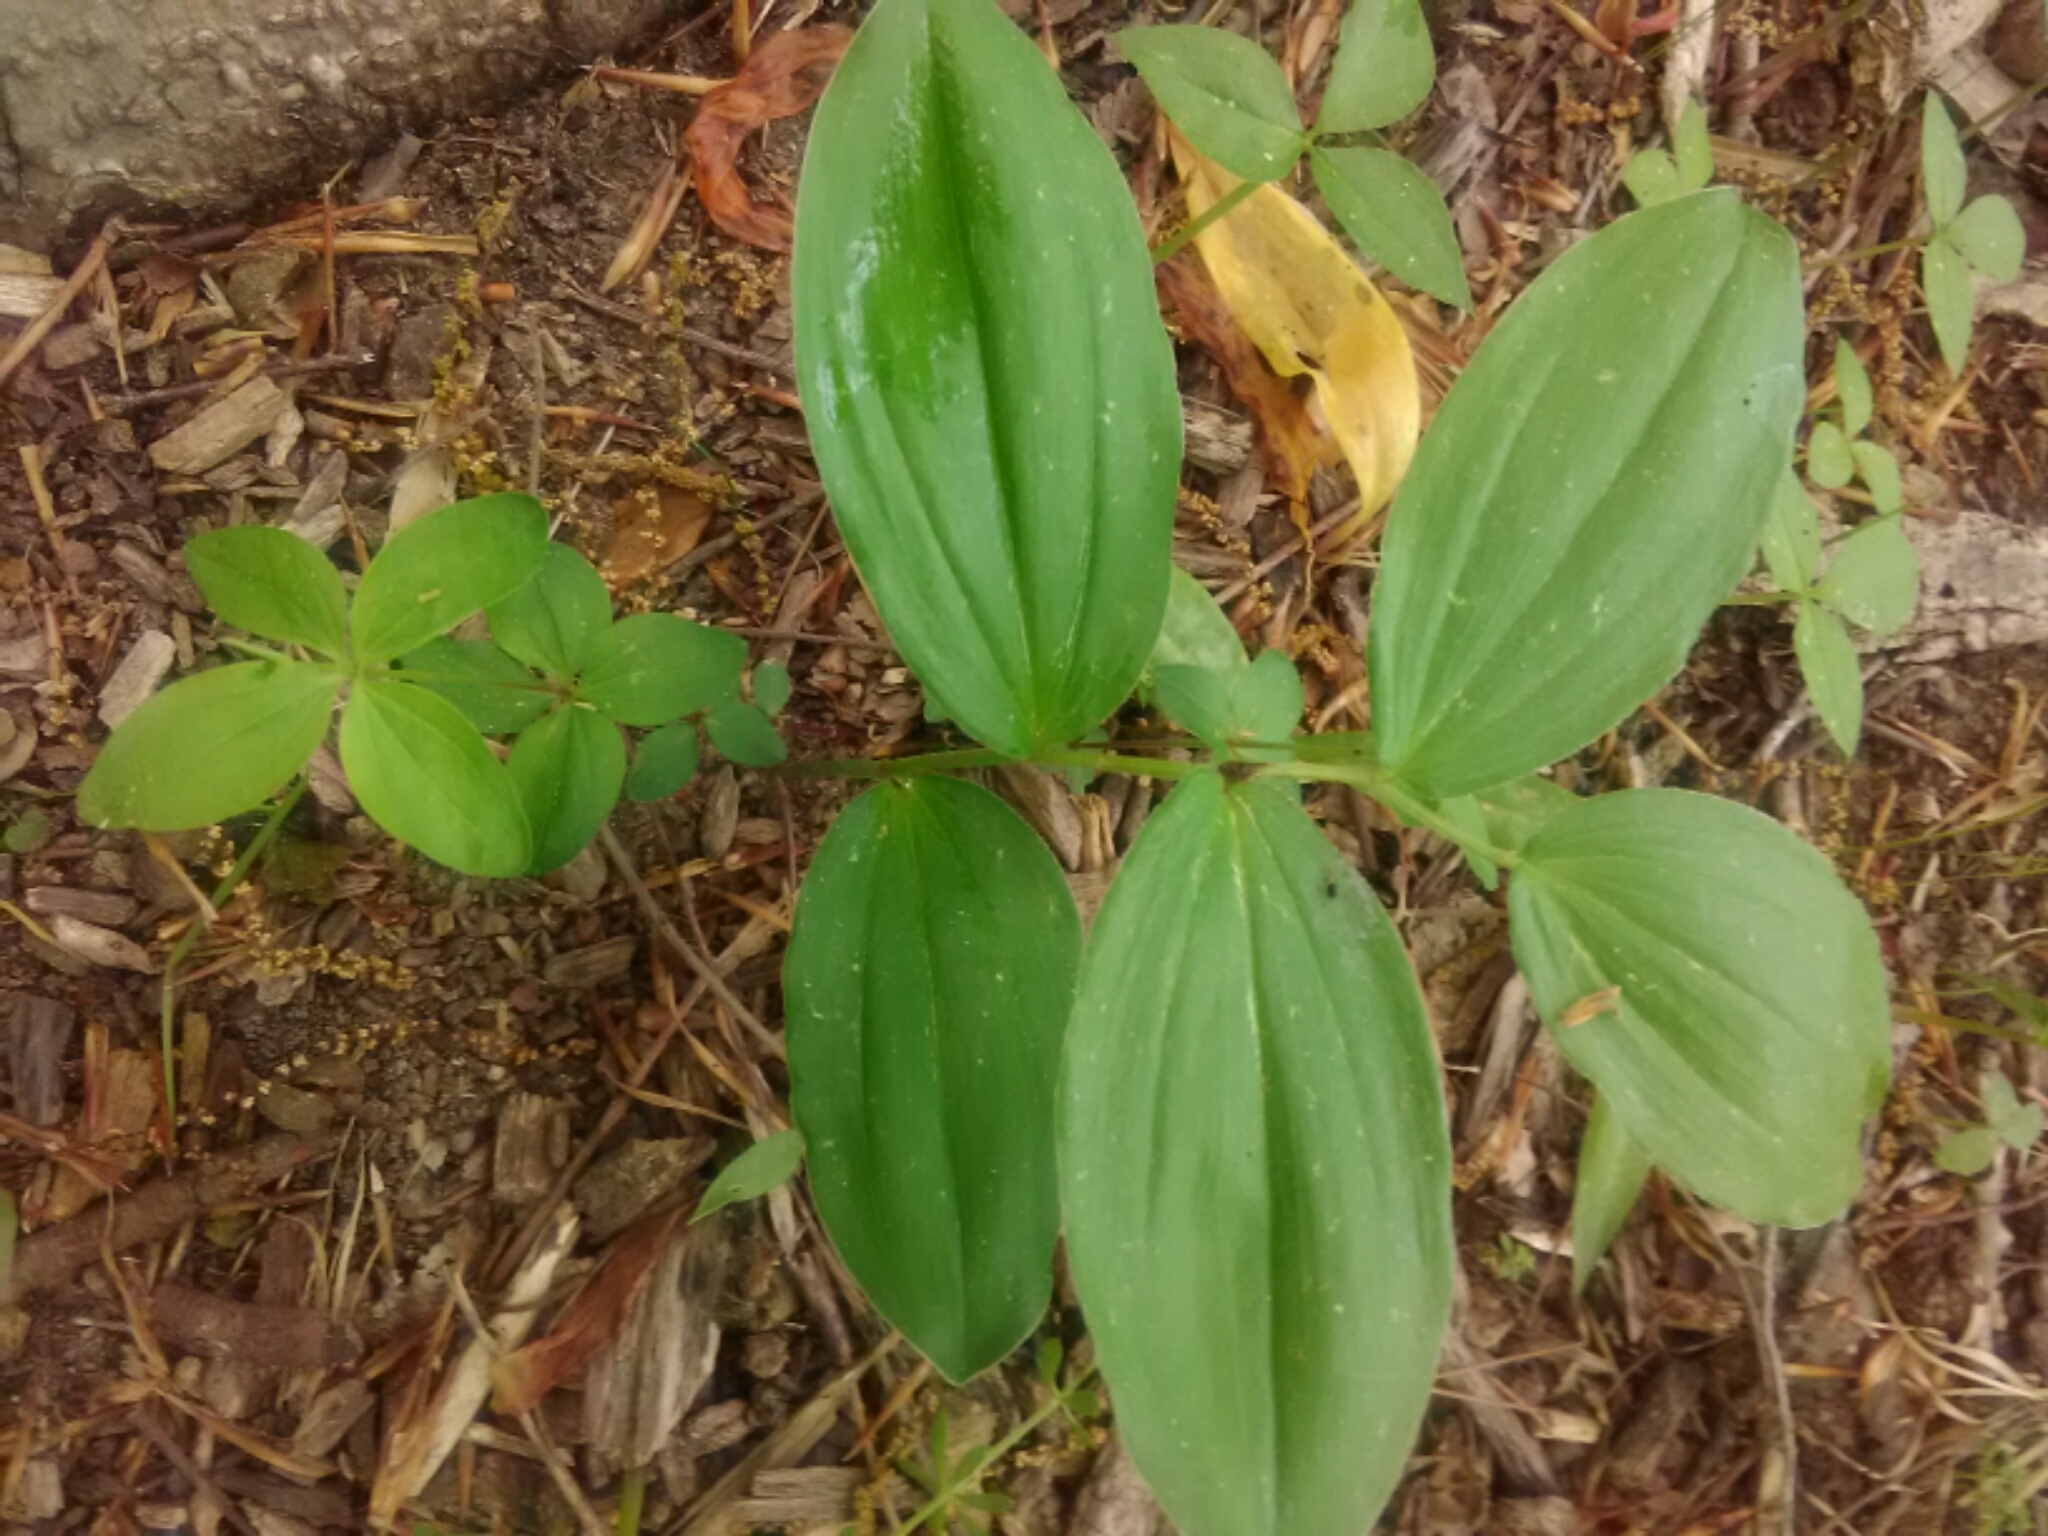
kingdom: Plantae
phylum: Tracheophyta
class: Liliopsida
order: Asparagales
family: Asparagaceae
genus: Maianthemum
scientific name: Maianthemum racemosum
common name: False spikenard
